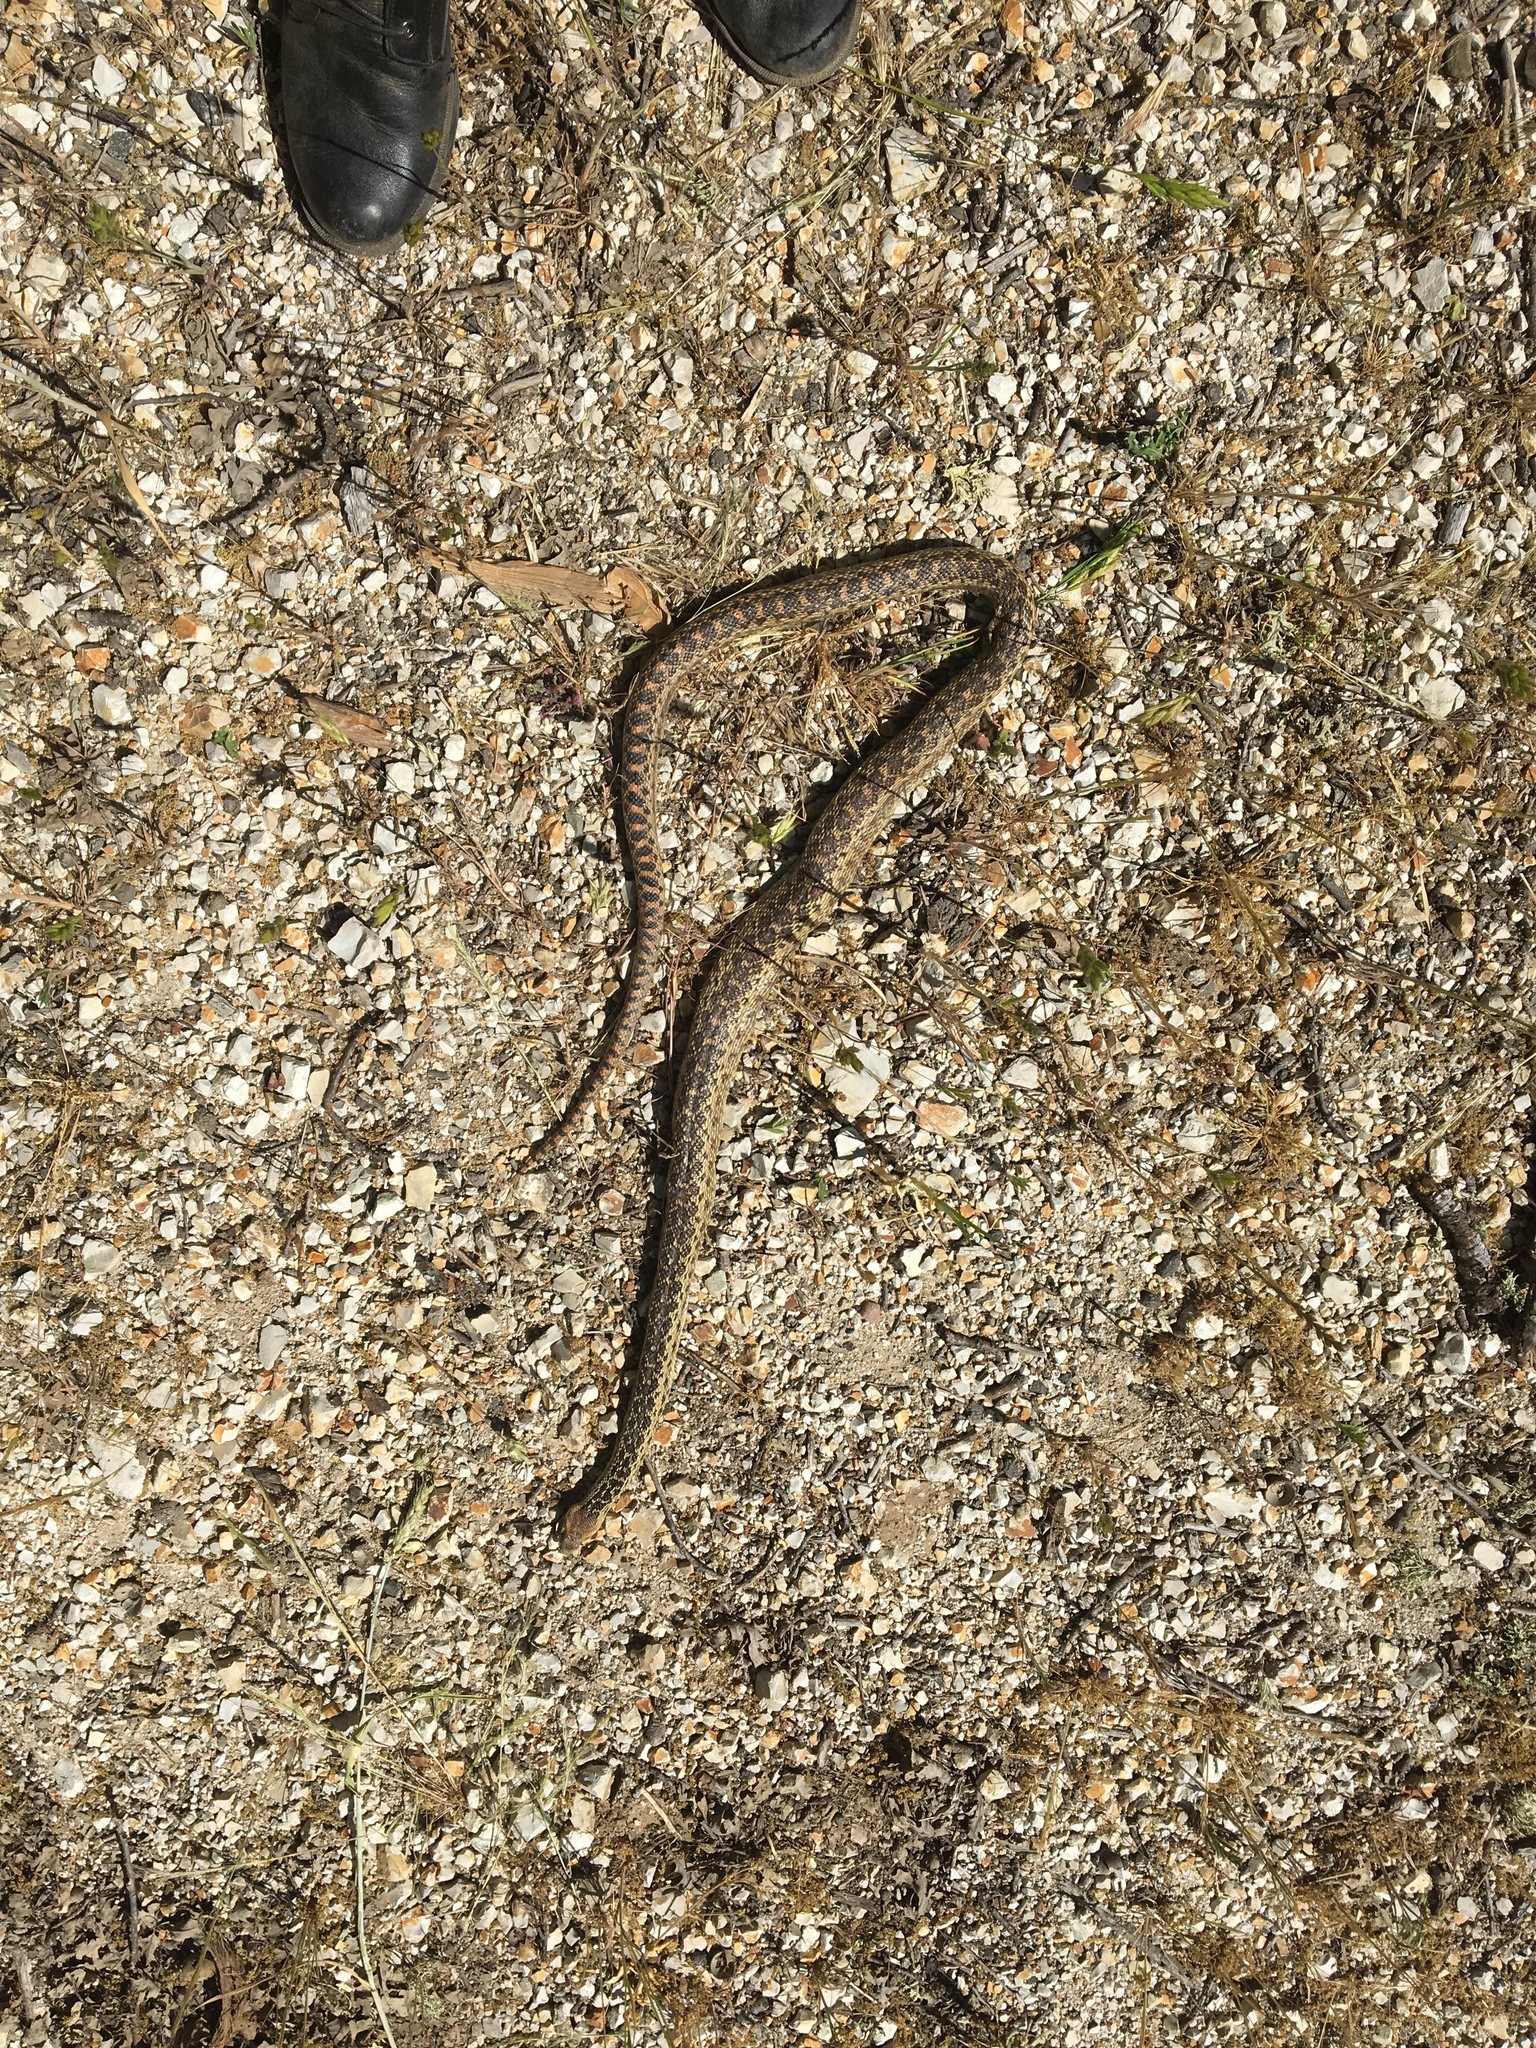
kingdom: Animalia
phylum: Chordata
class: Squamata
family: Colubridae
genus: Pituophis
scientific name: Pituophis catenifer
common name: Gopher snake
